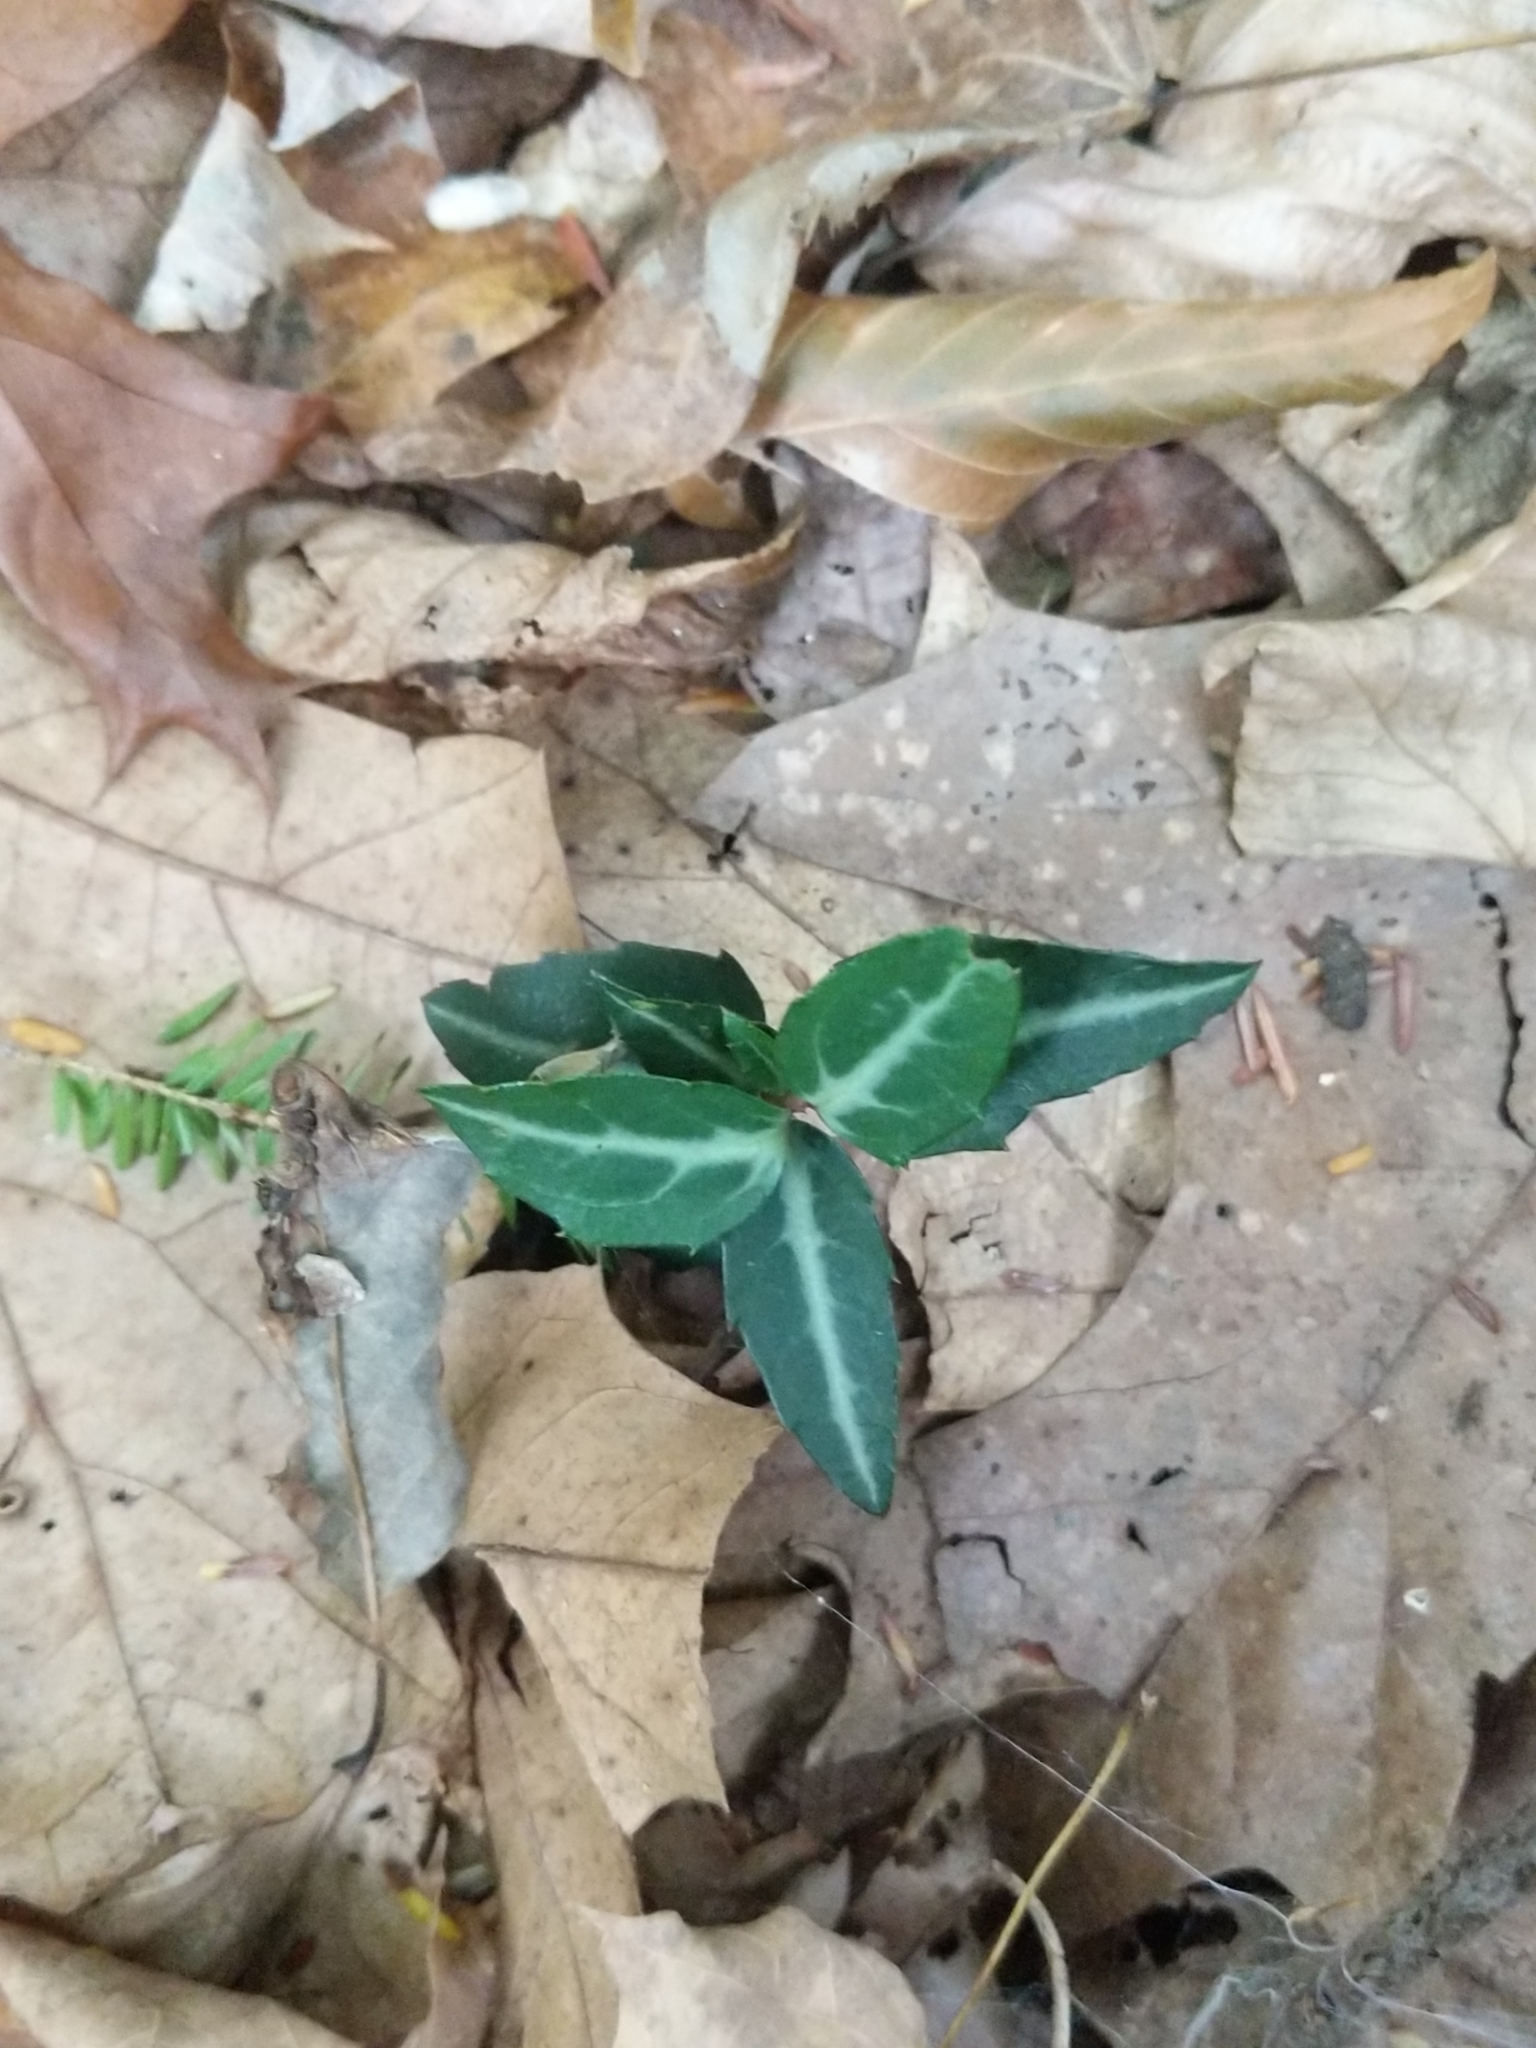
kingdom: Plantae
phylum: Tracheophyta
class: Magnoliopsida
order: Ericales
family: Ericaceae
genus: Chimaphila
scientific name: Chimaphila maculata
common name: Spotted pipsissewa
